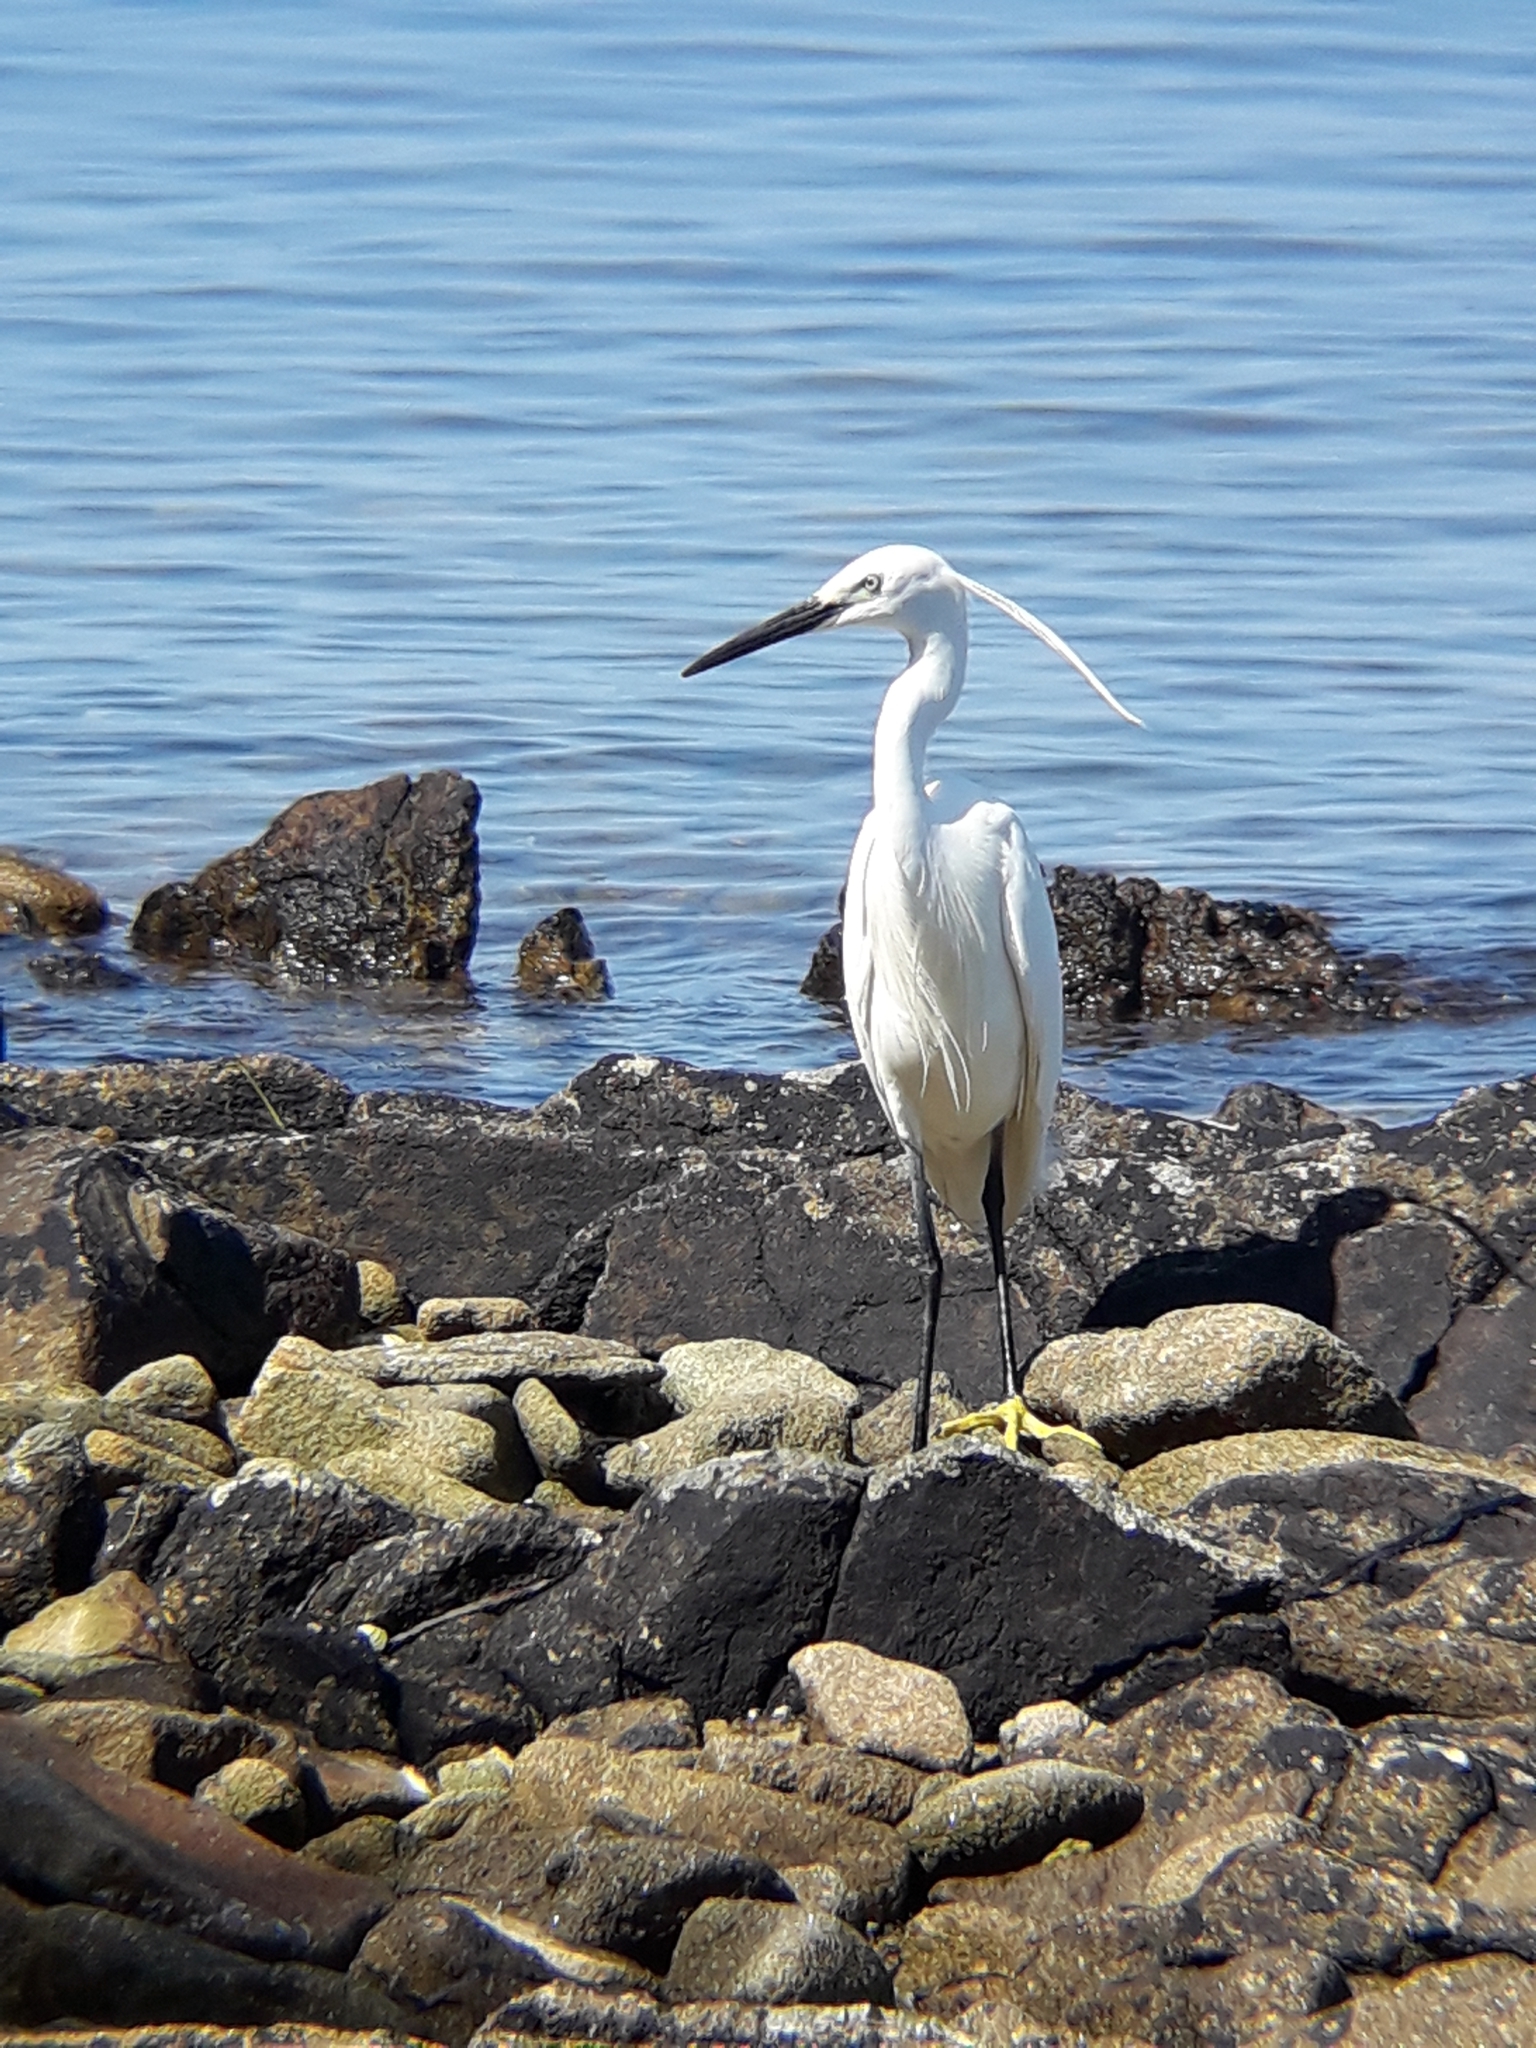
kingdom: Animalia
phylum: Chordata
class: Aves
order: Pelecaniformes
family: Ardeidae
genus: Egretta
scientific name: Egretta garzetta
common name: Little egret
